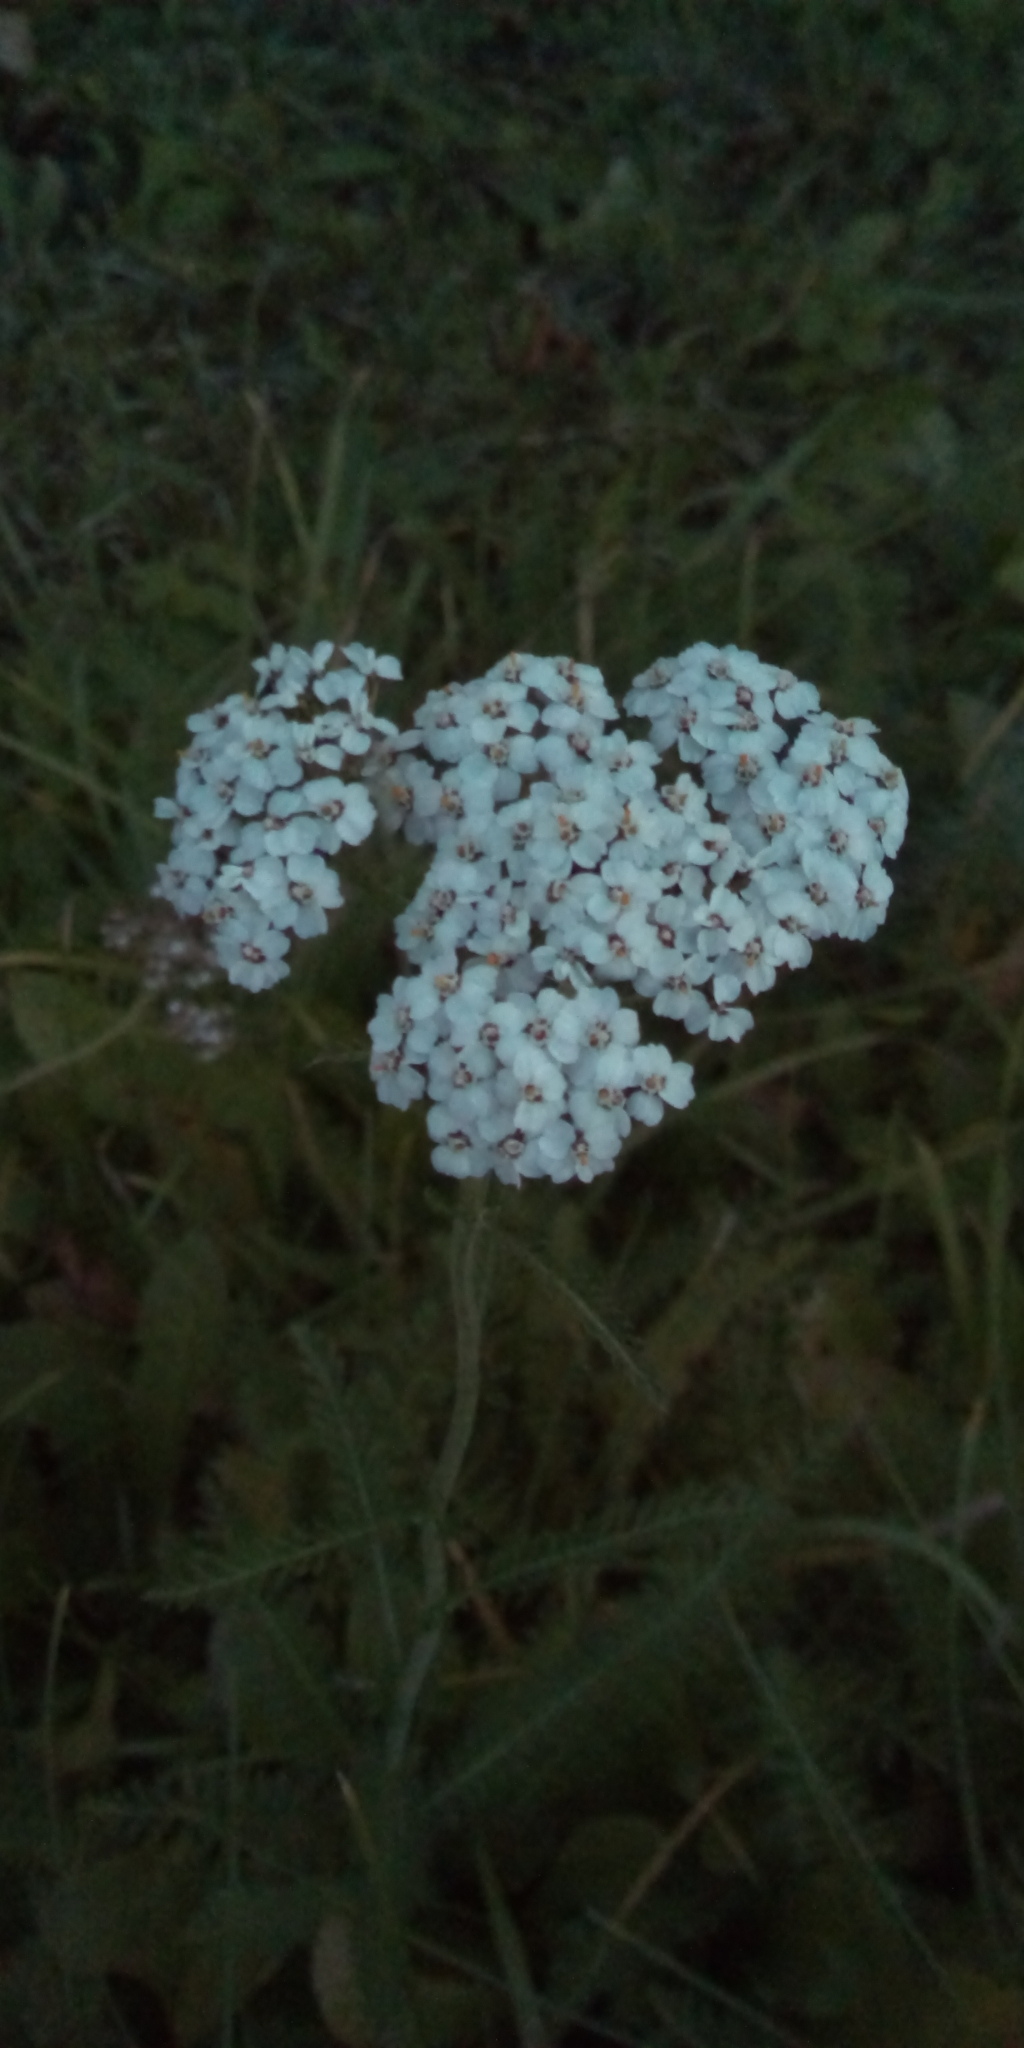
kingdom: Plantae
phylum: Tracheophyta
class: Magnoliopsida
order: Asterales
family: Asteraceae
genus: Achillea
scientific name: Achillea millefolium
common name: Yarrow
